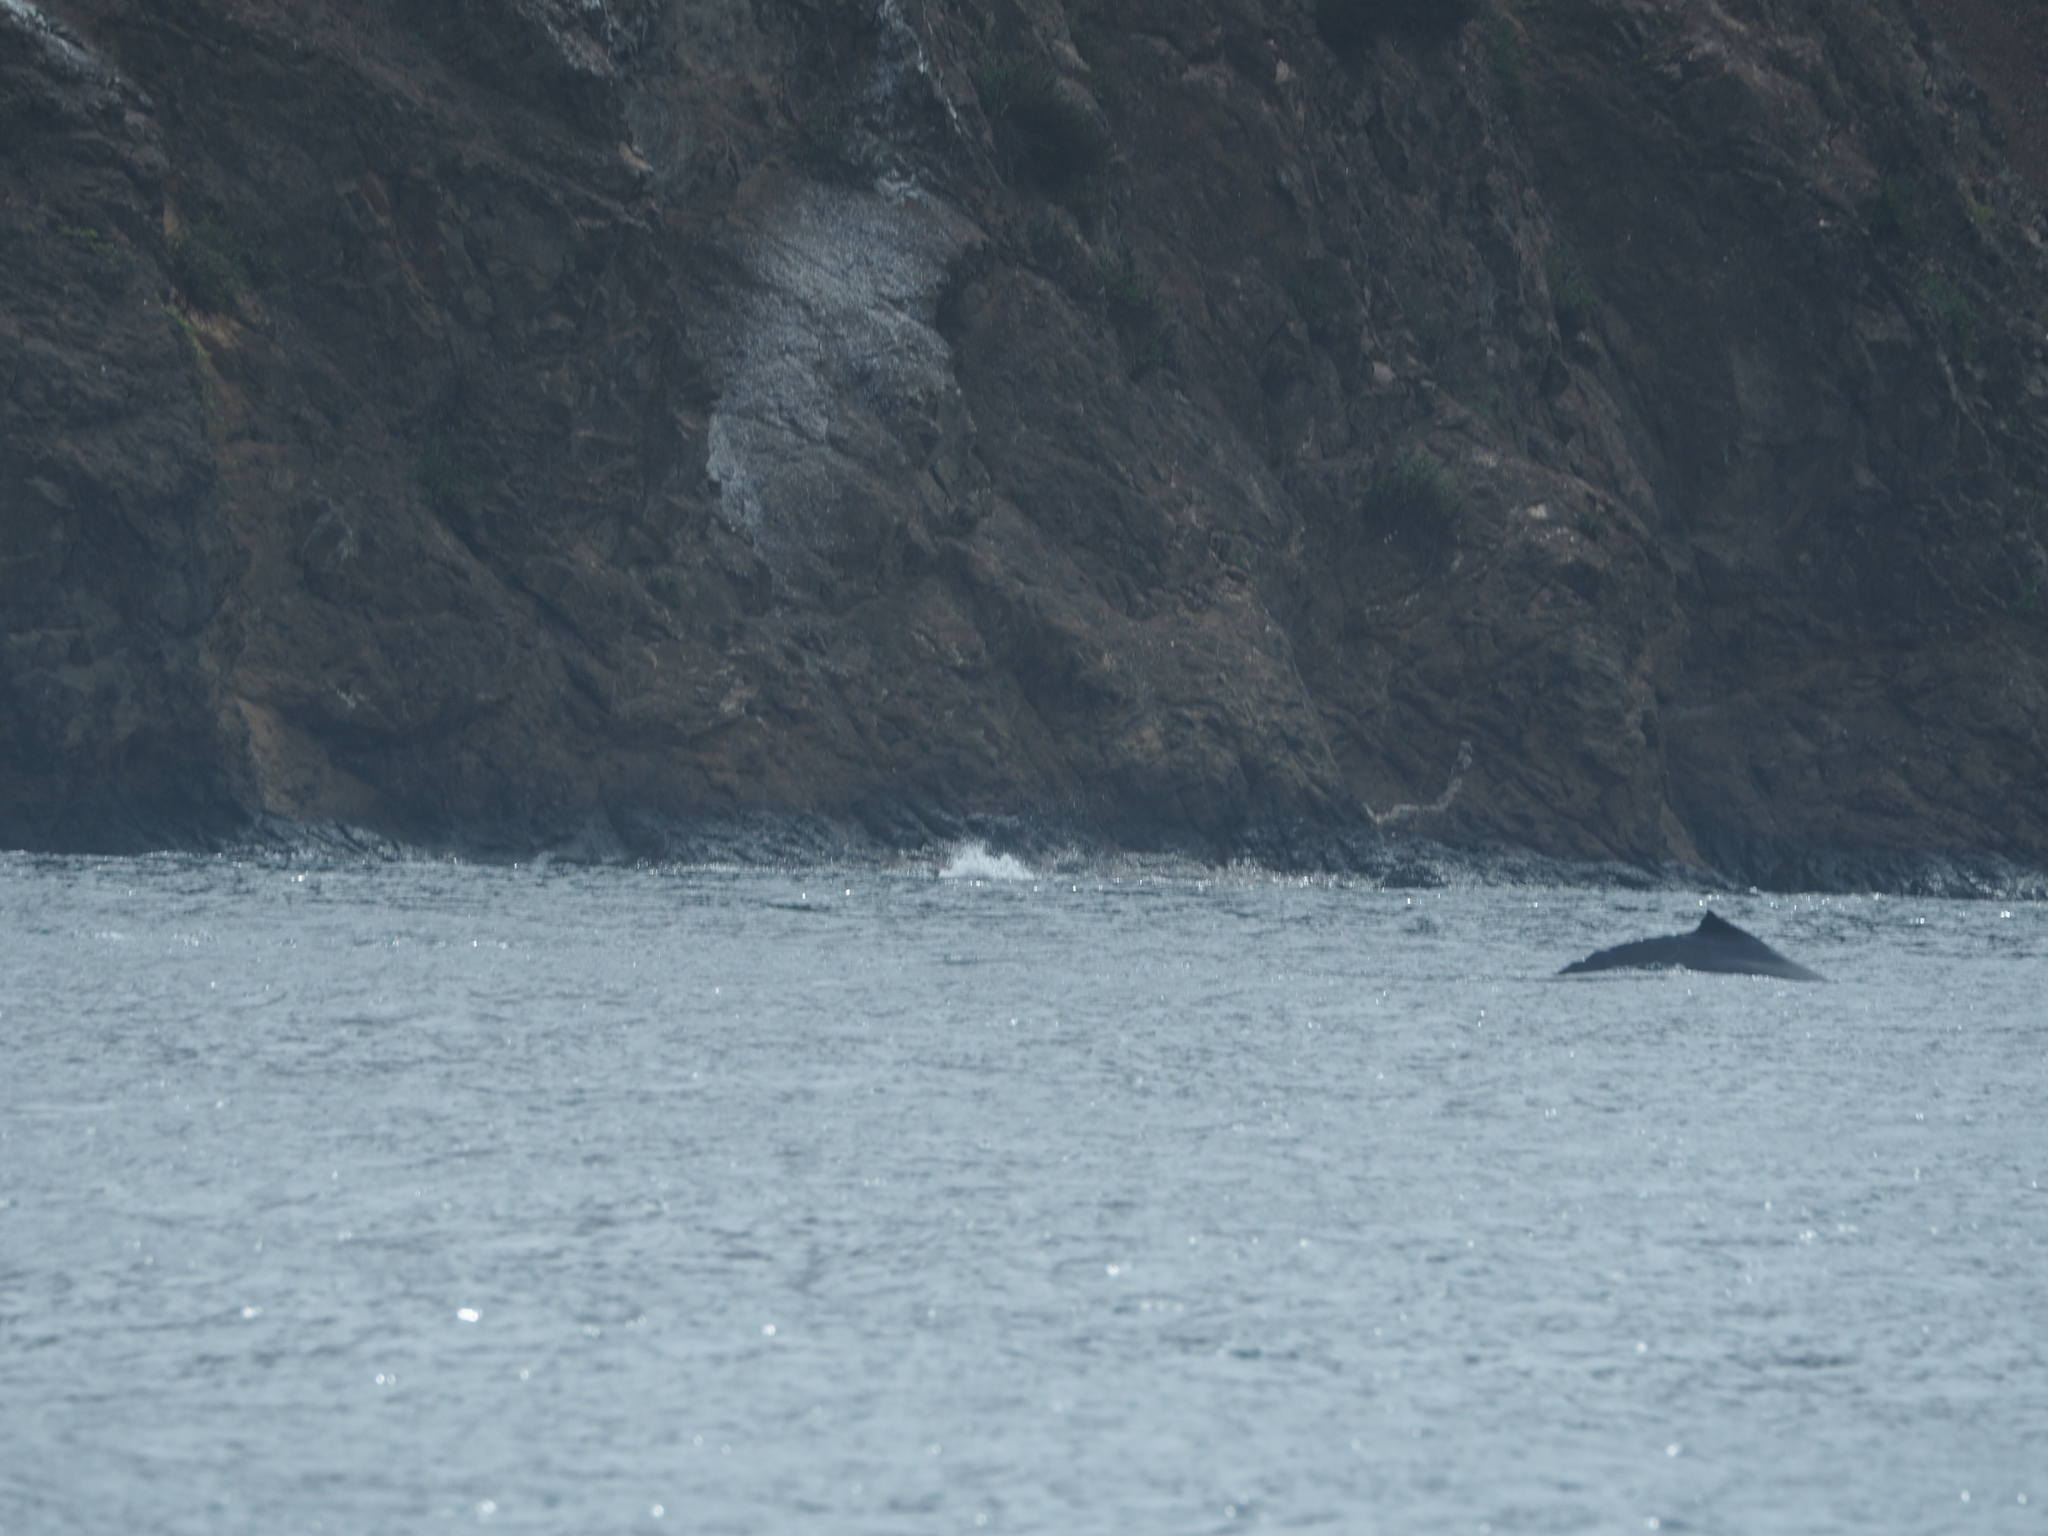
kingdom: Animalia
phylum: Chordata
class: Mammalia
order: Cetacea
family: Balaenopteridae
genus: Megaptera
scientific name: Megaptera novaeangliae
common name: Humpback whale
